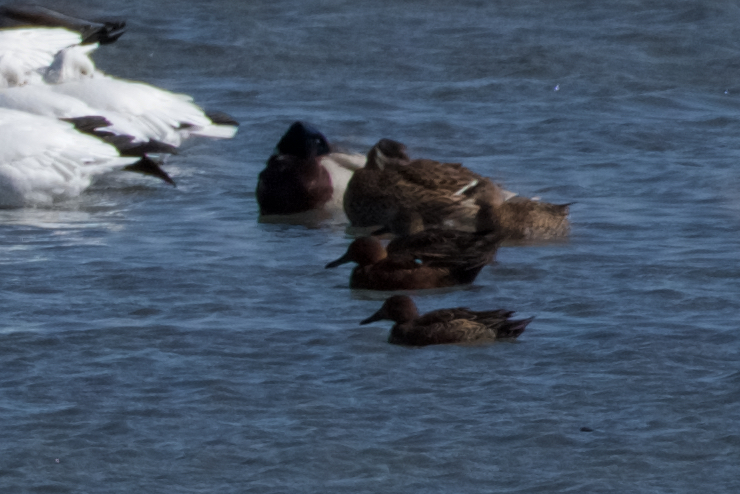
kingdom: Animalia
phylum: Chordata
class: Aves
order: Anseriformes
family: Anatidae
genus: Spatula
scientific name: Spatula cyanoptera
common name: Cinnamon teal
